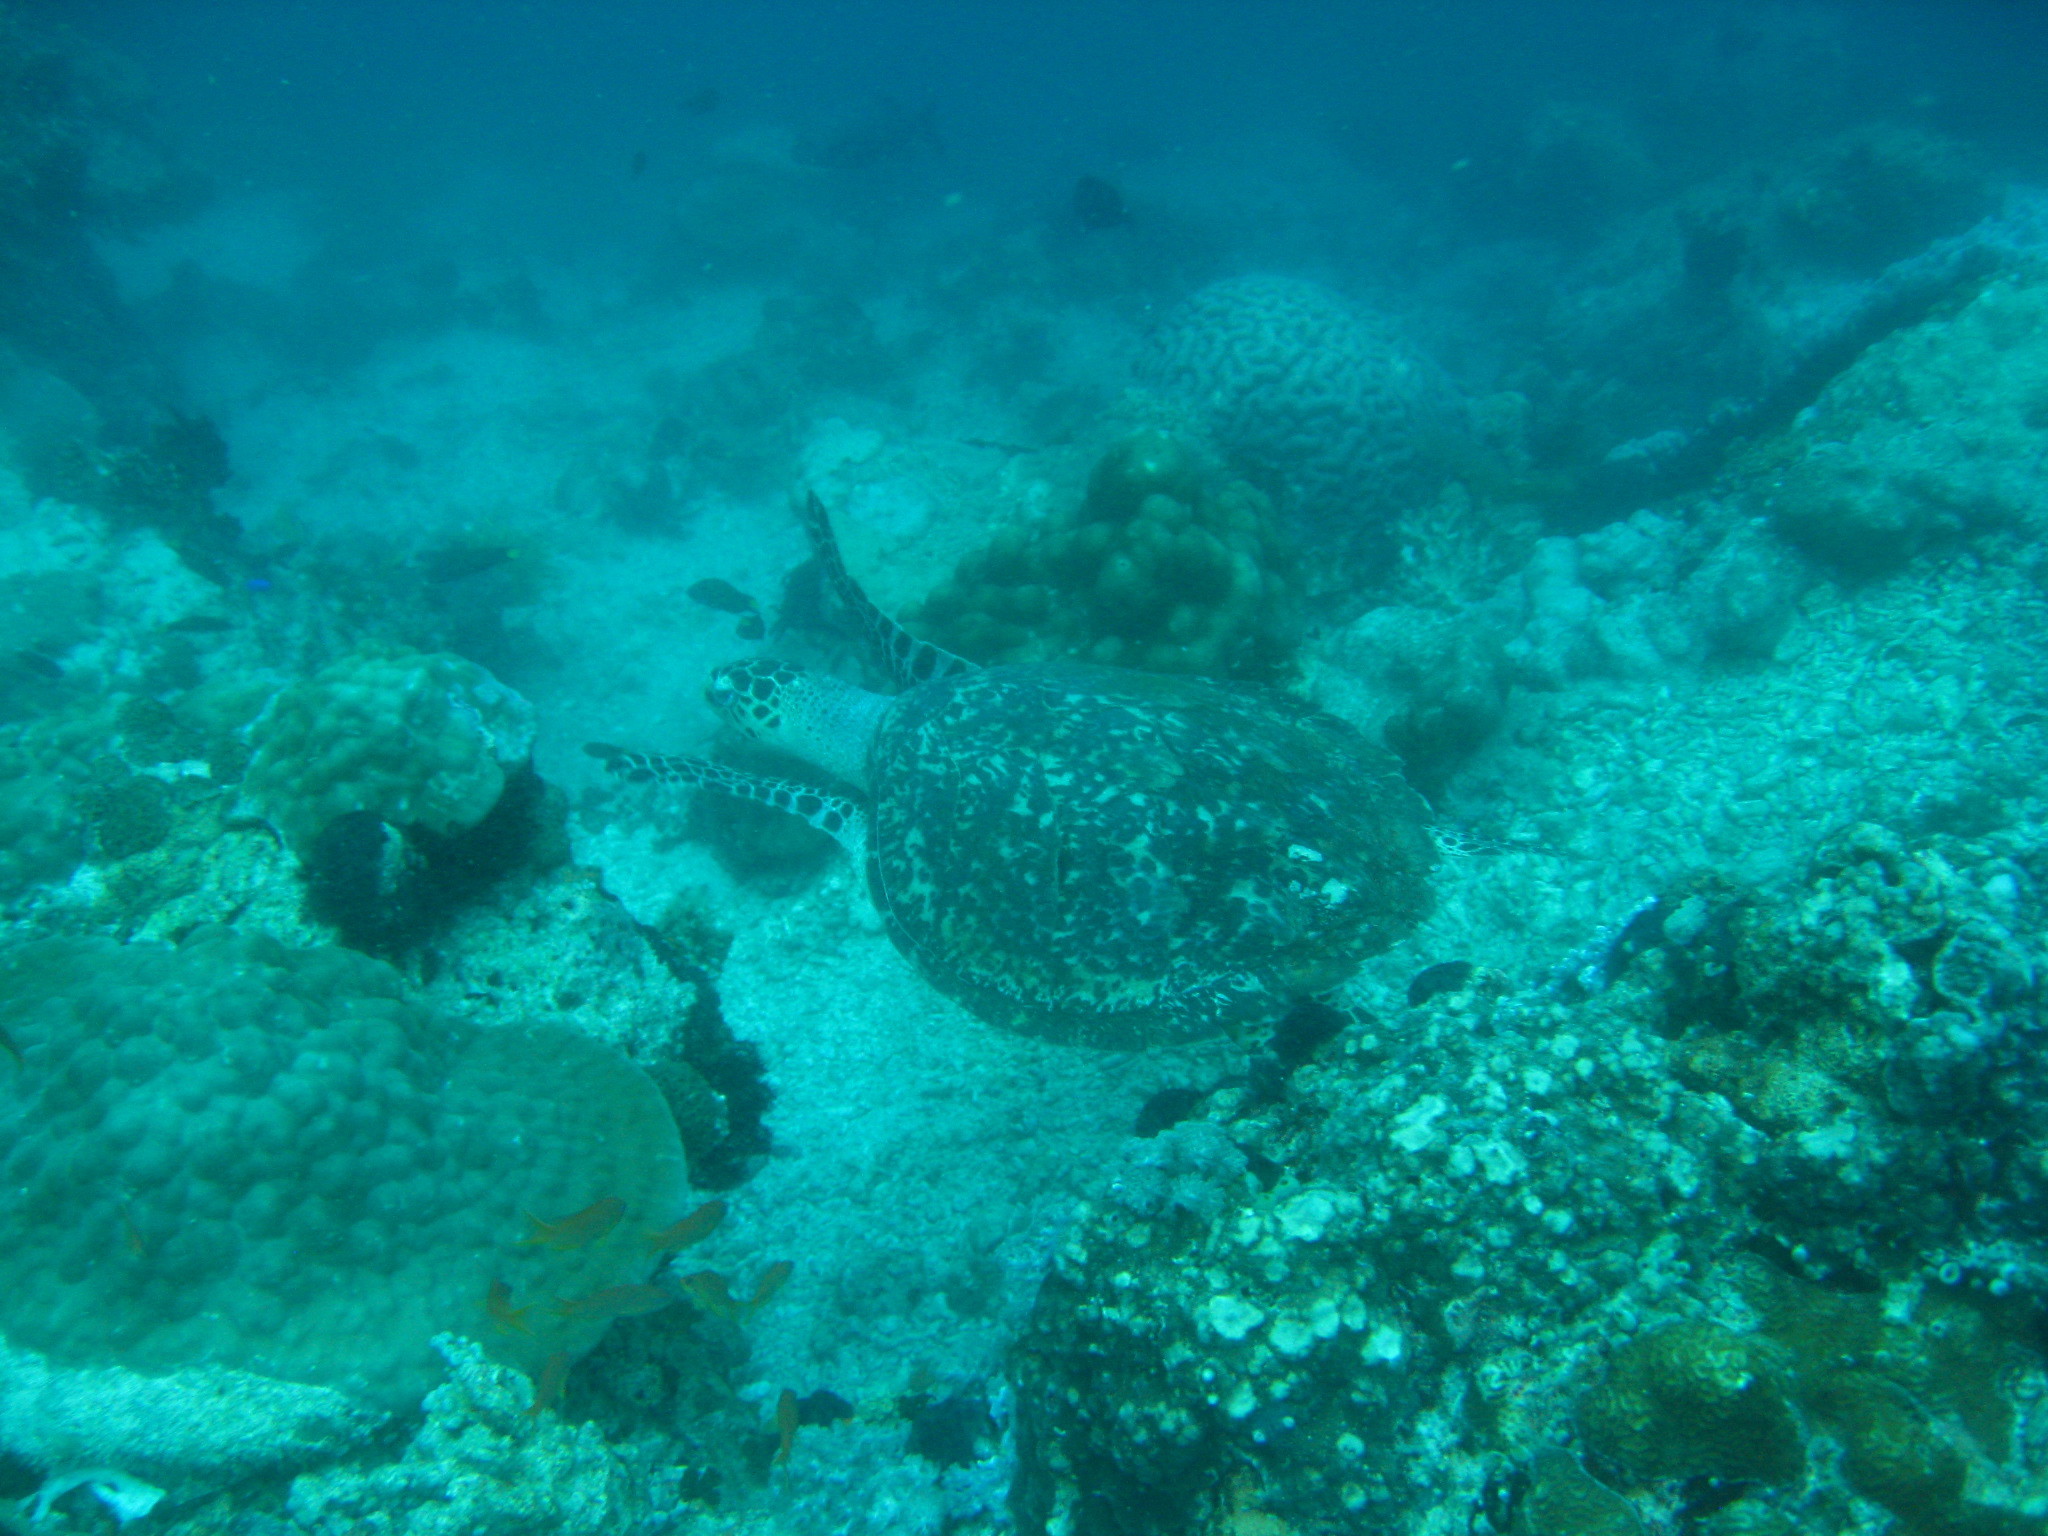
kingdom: Animalia
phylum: Chordata
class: Testudines
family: Cheloniidae
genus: Eretmochelys
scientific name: Eretmochelys imbricata
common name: Hawksbill turtle
